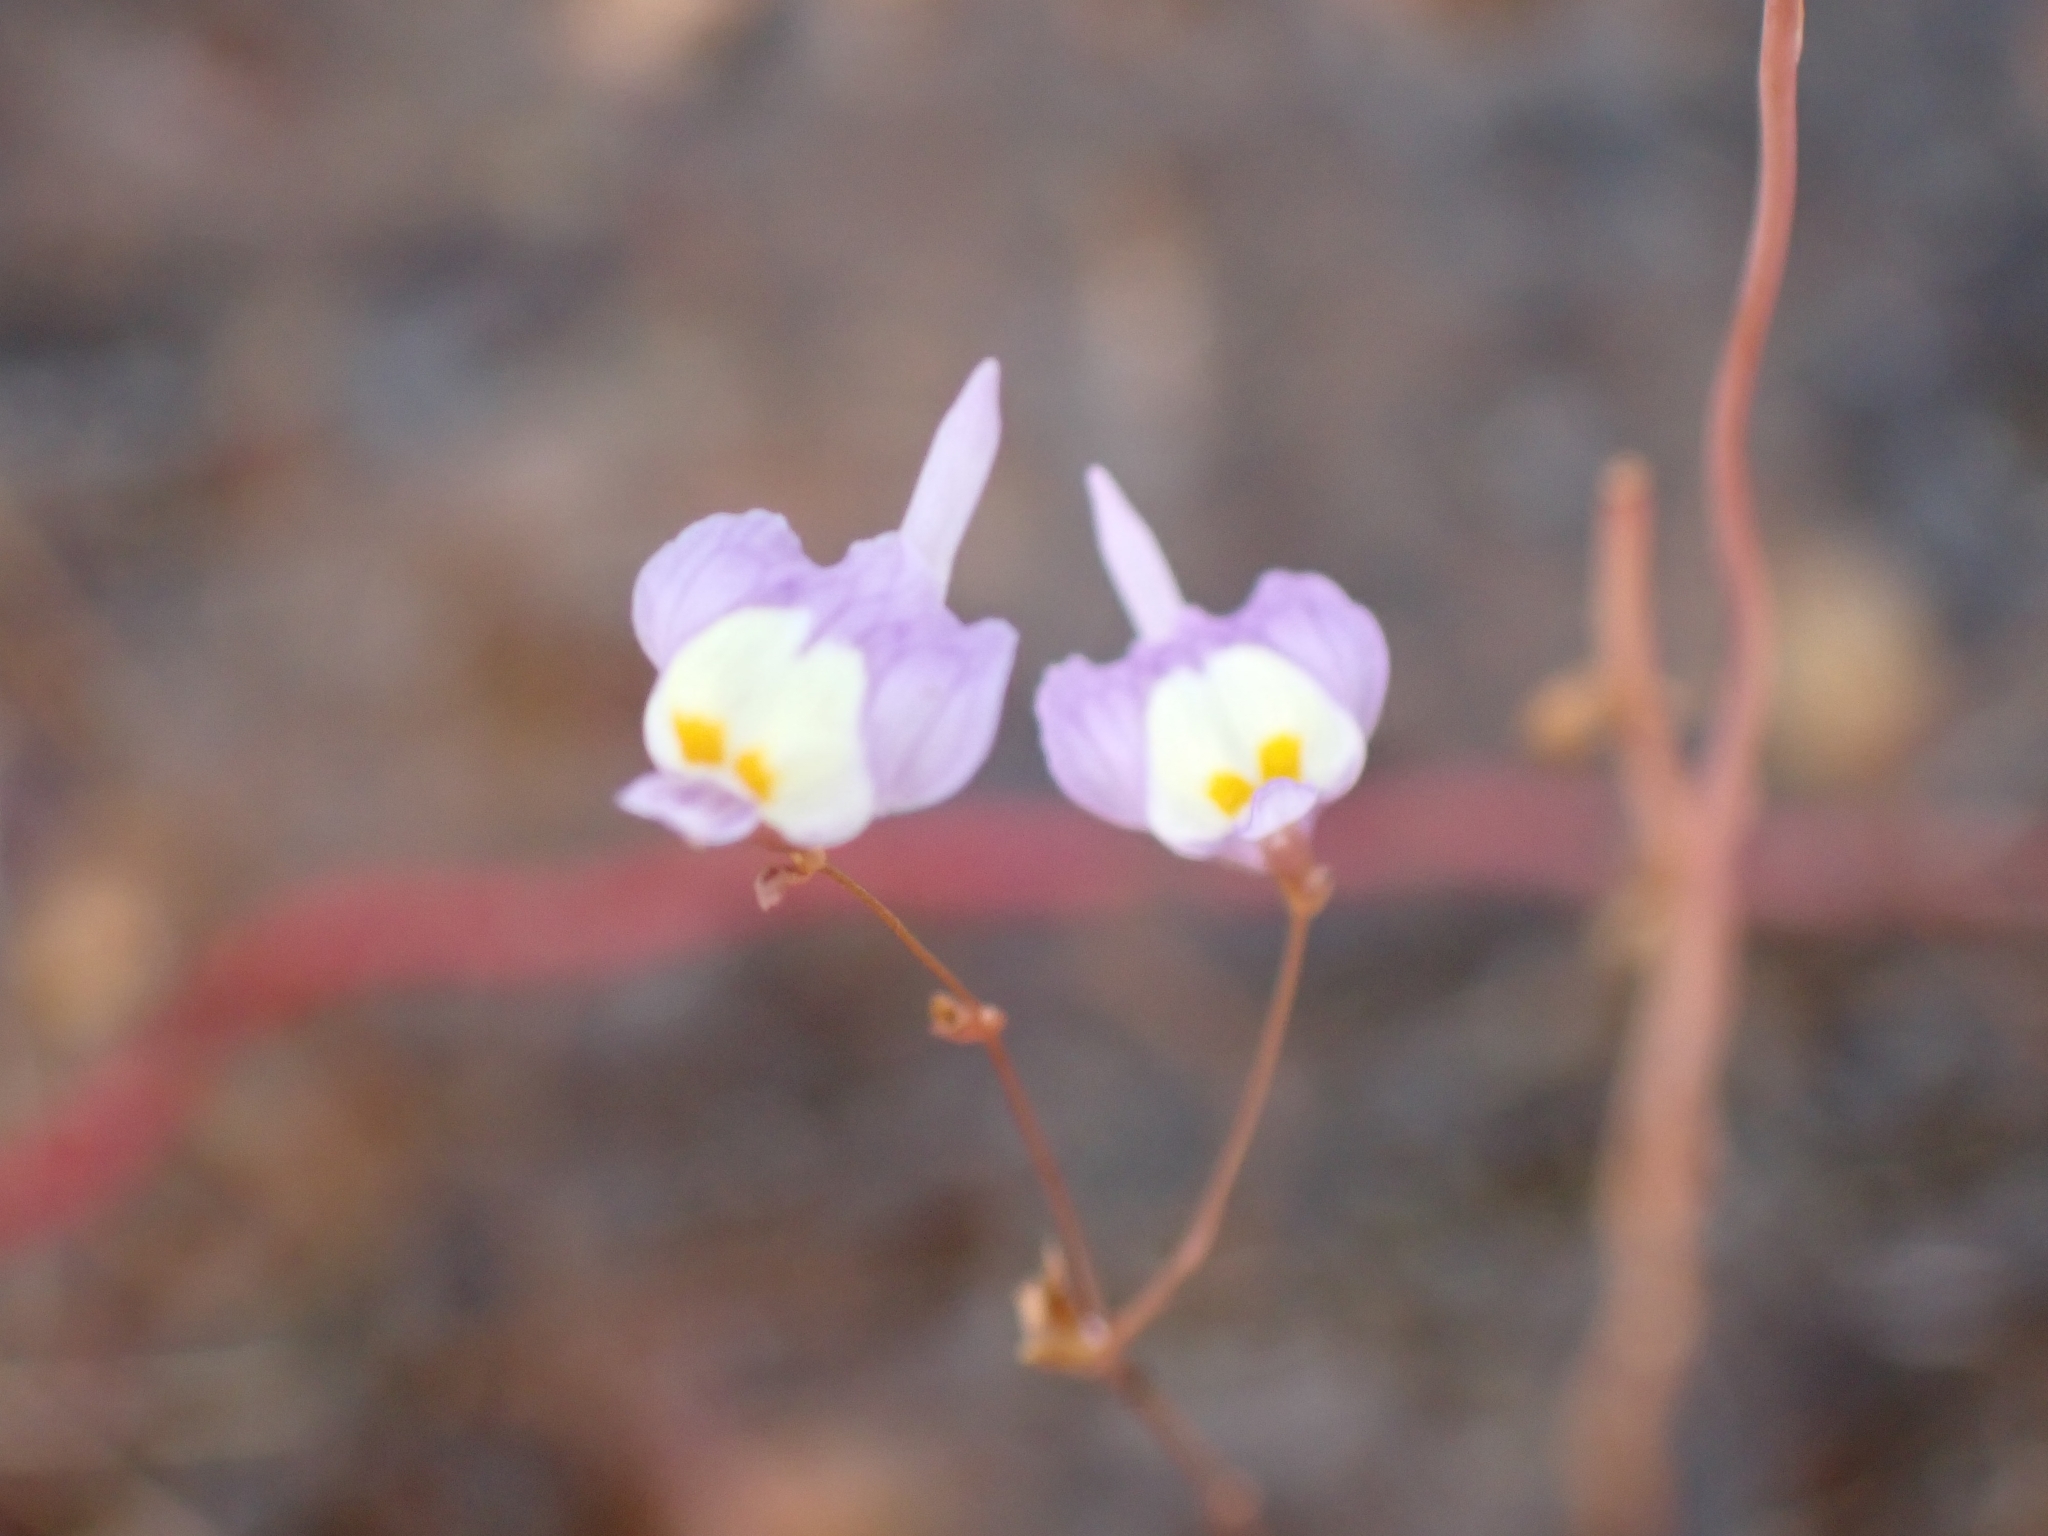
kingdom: Plantae
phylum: Tracheophyta
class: Magnoliopsida
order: Lamiales
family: Lentibulariaceae
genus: Utricularia
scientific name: Utricularia minutissima
